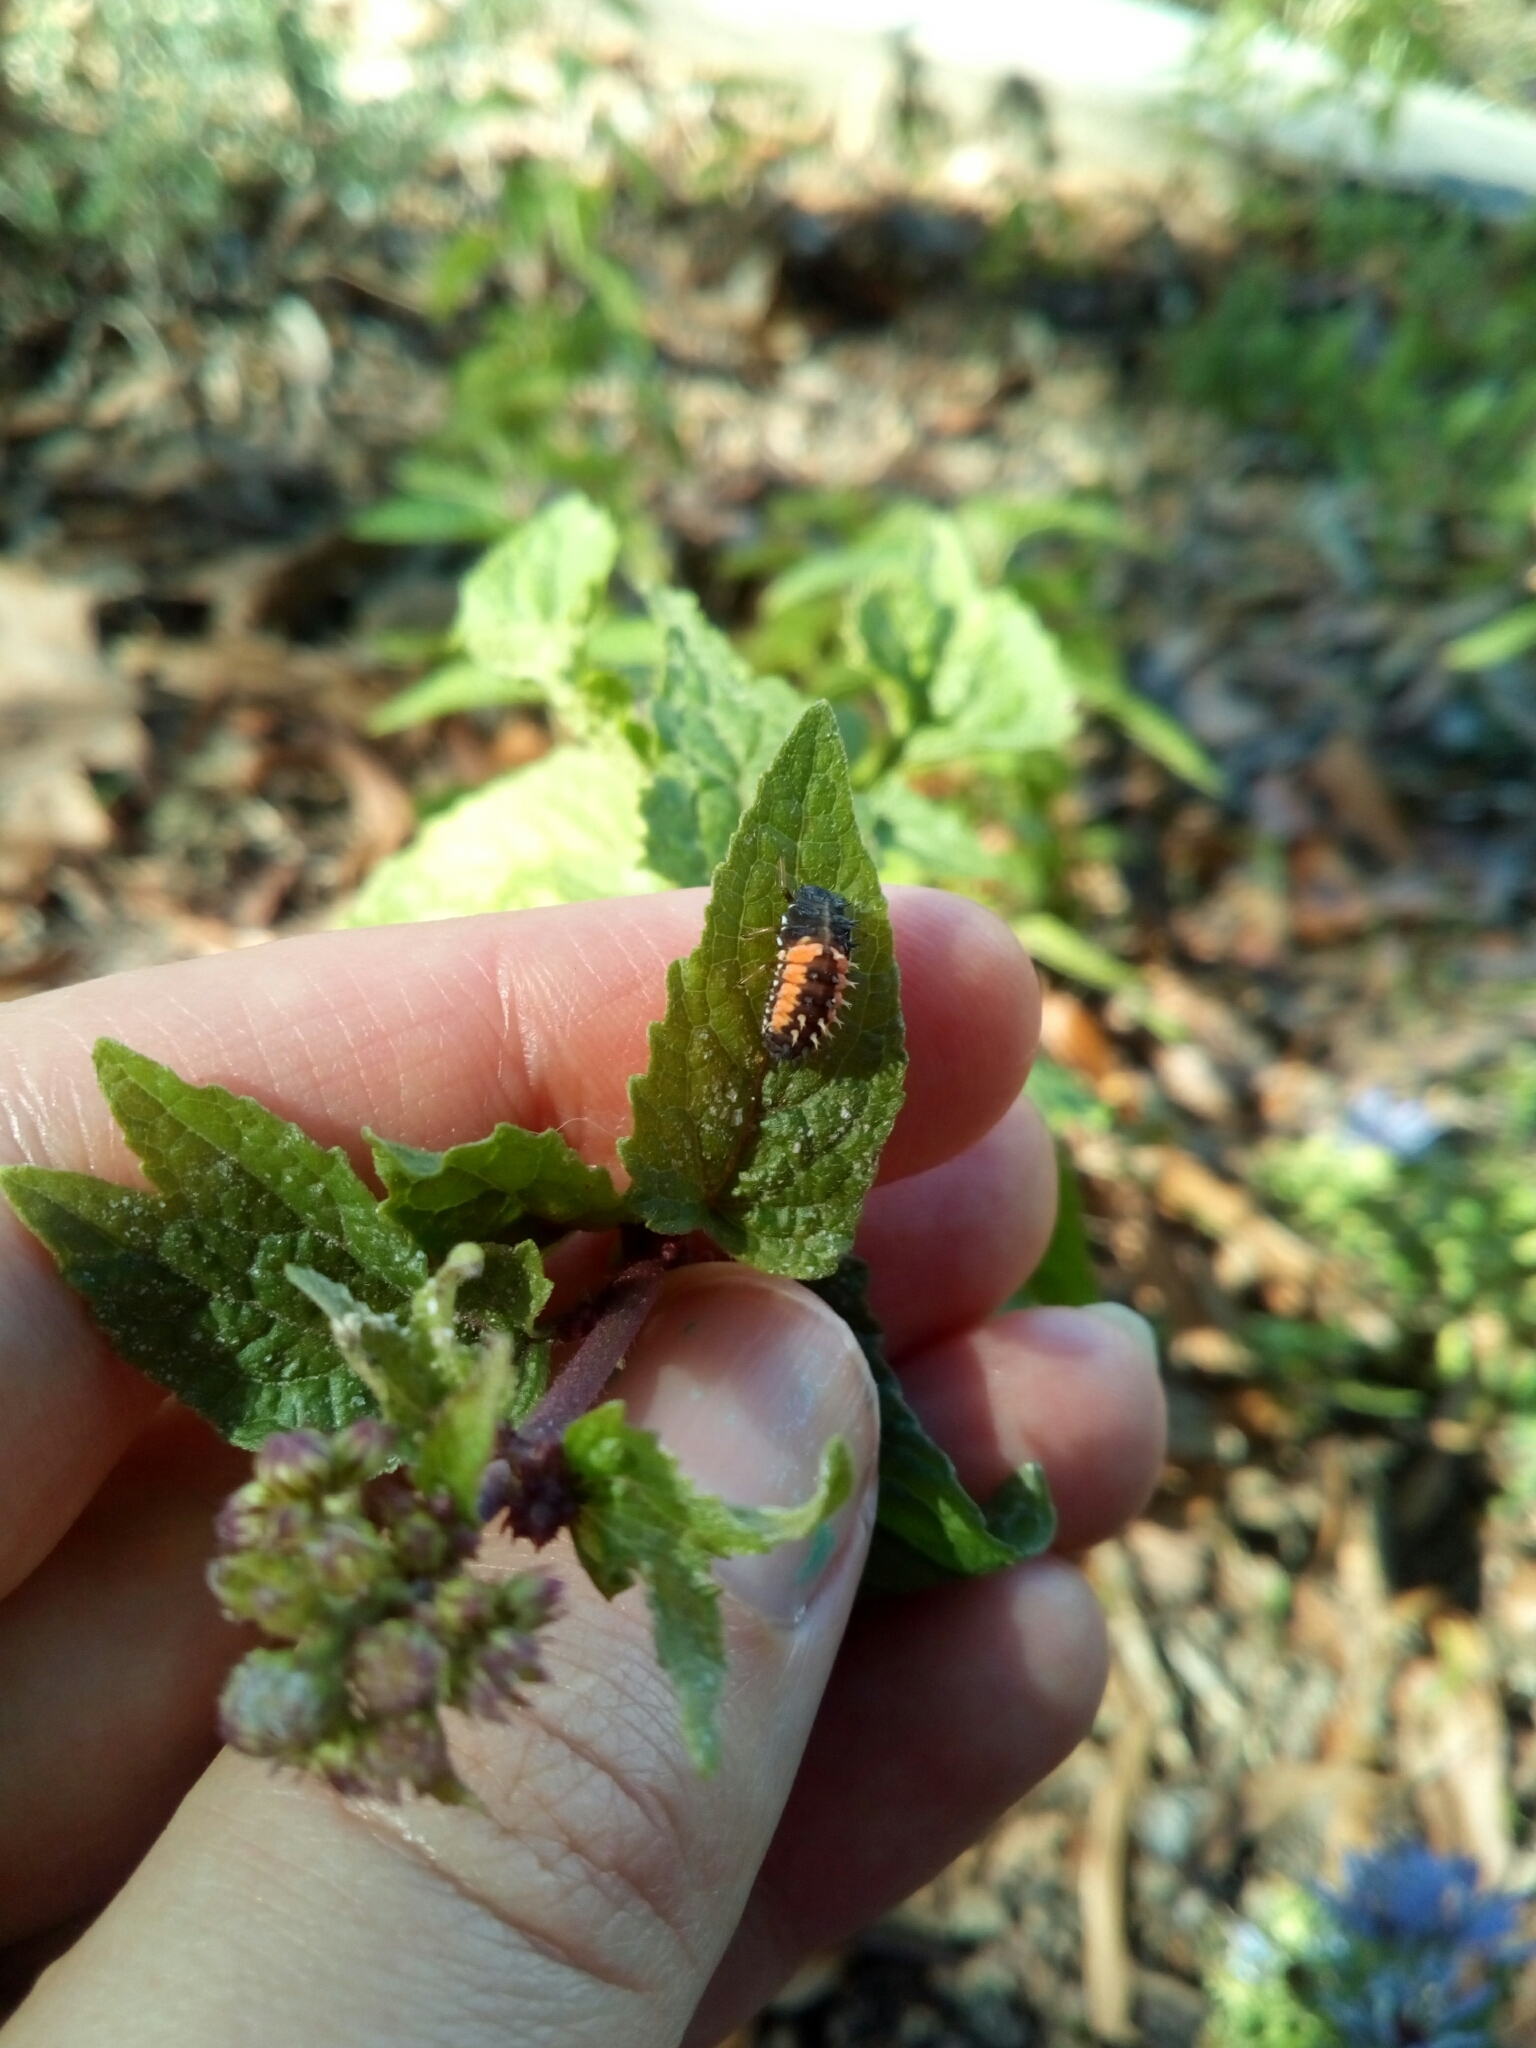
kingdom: Animalia
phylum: Arthropoda
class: Insecta
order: Coleoptera
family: Coccinellidae
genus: Harmonia
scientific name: Harmonia axyridis
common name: Harlequin ladybird
